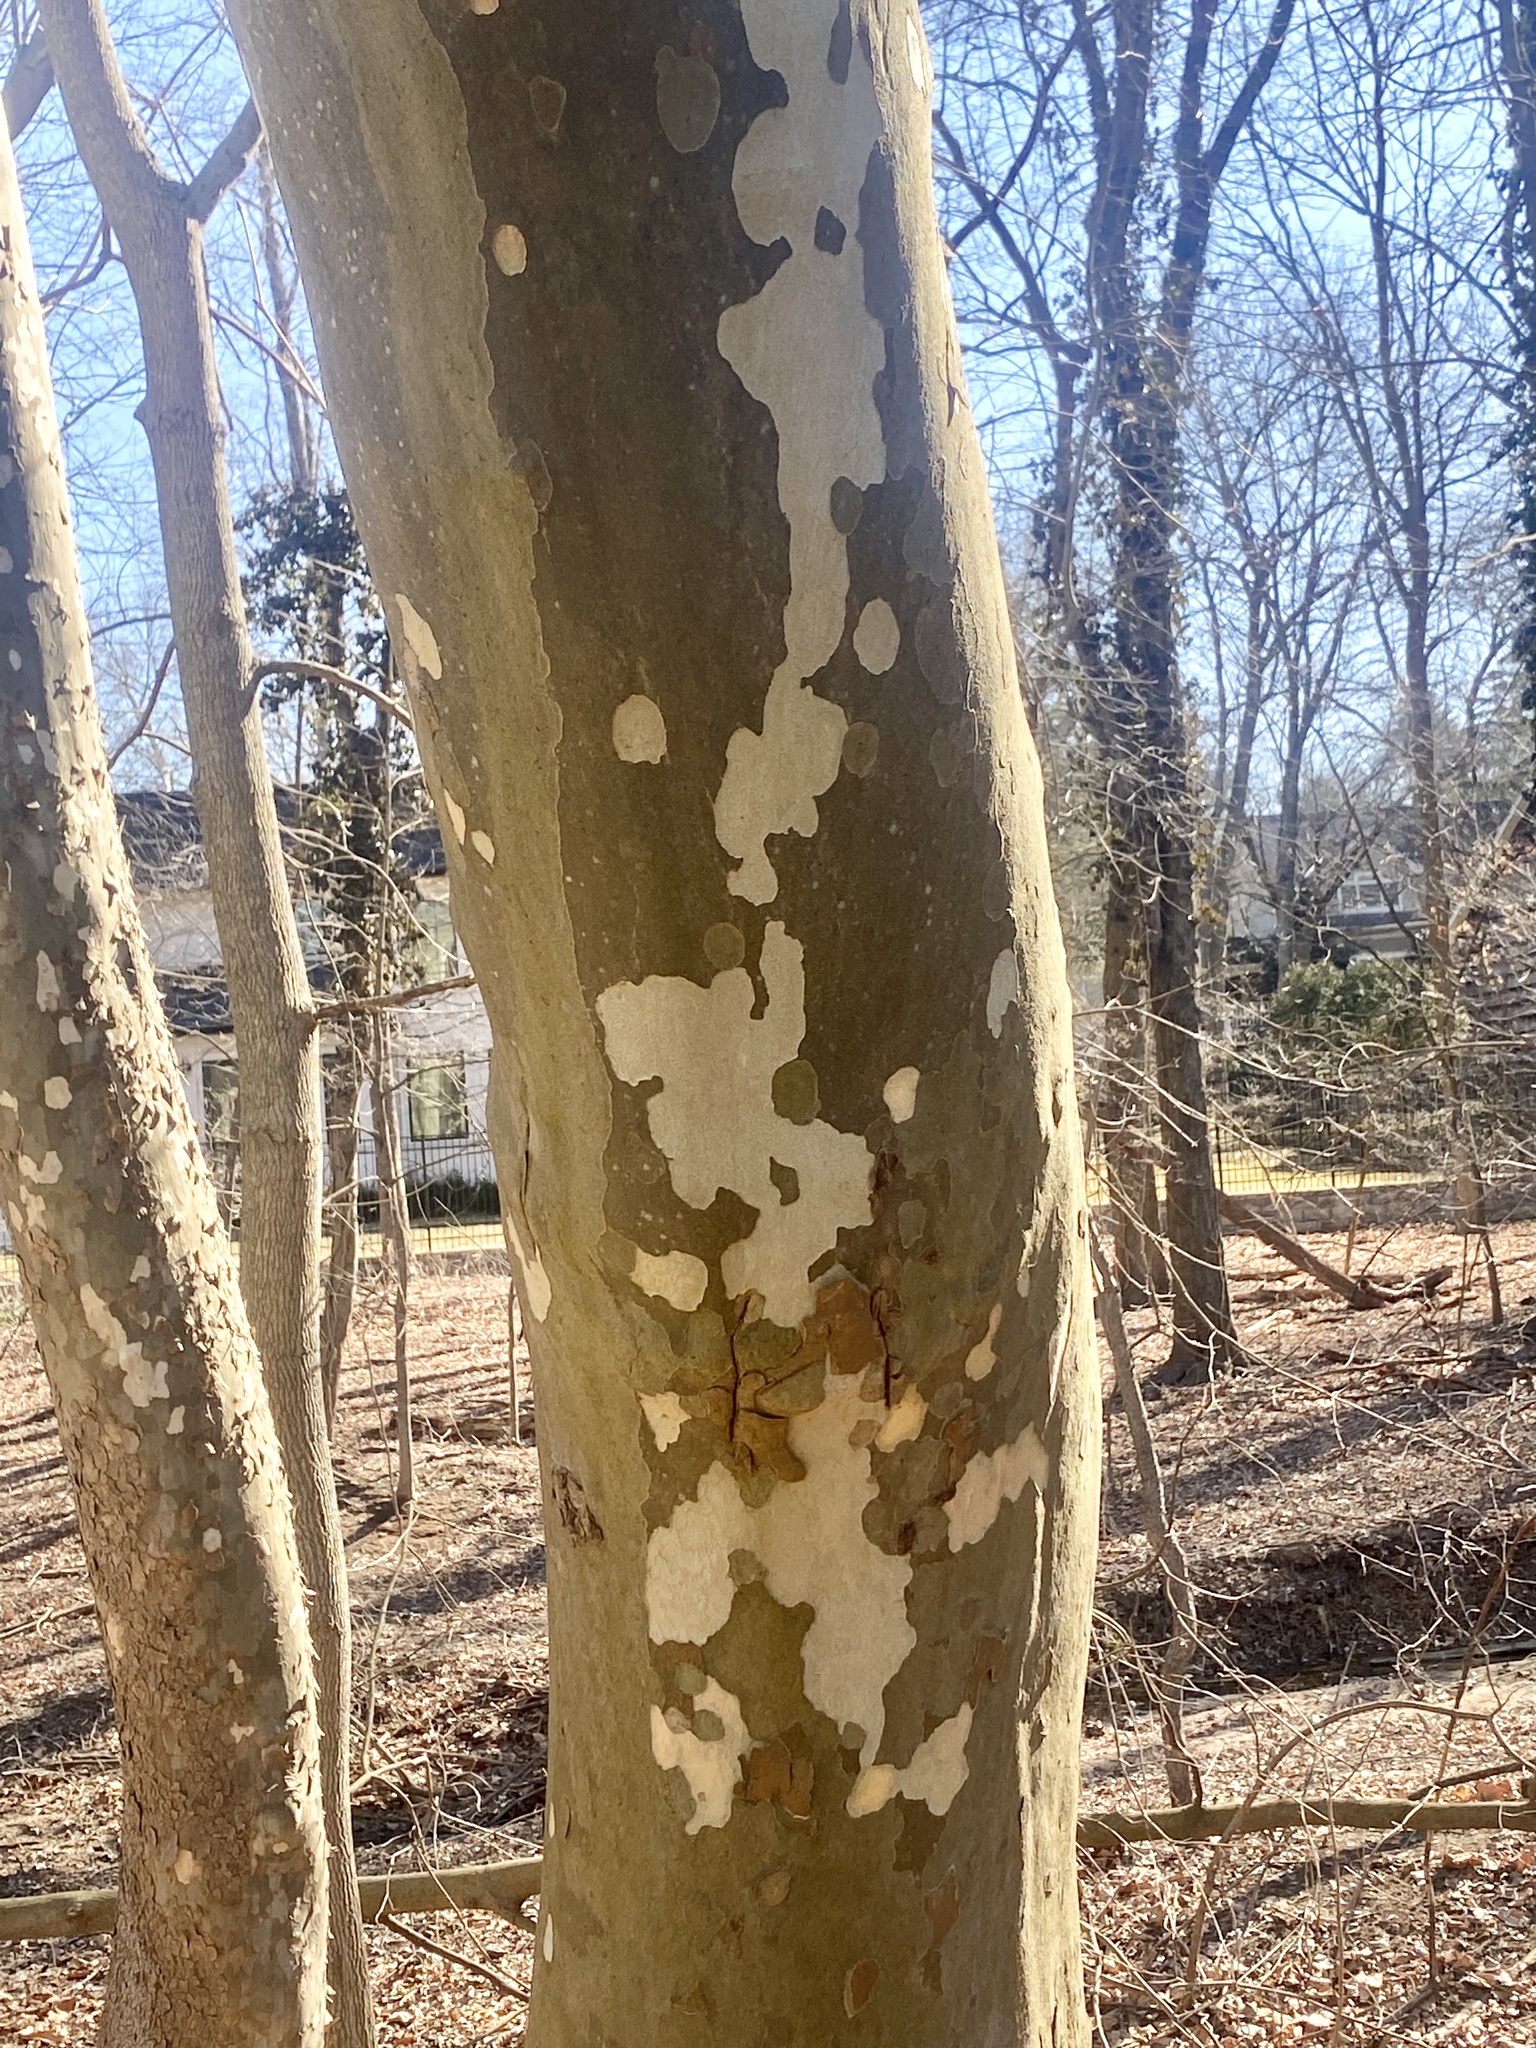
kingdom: Plantae
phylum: Tracheophyta
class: Magnoliopsida
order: Proteales
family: Platanaceae
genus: Platanus
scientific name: Platanus occidentalis
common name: American sycamore
